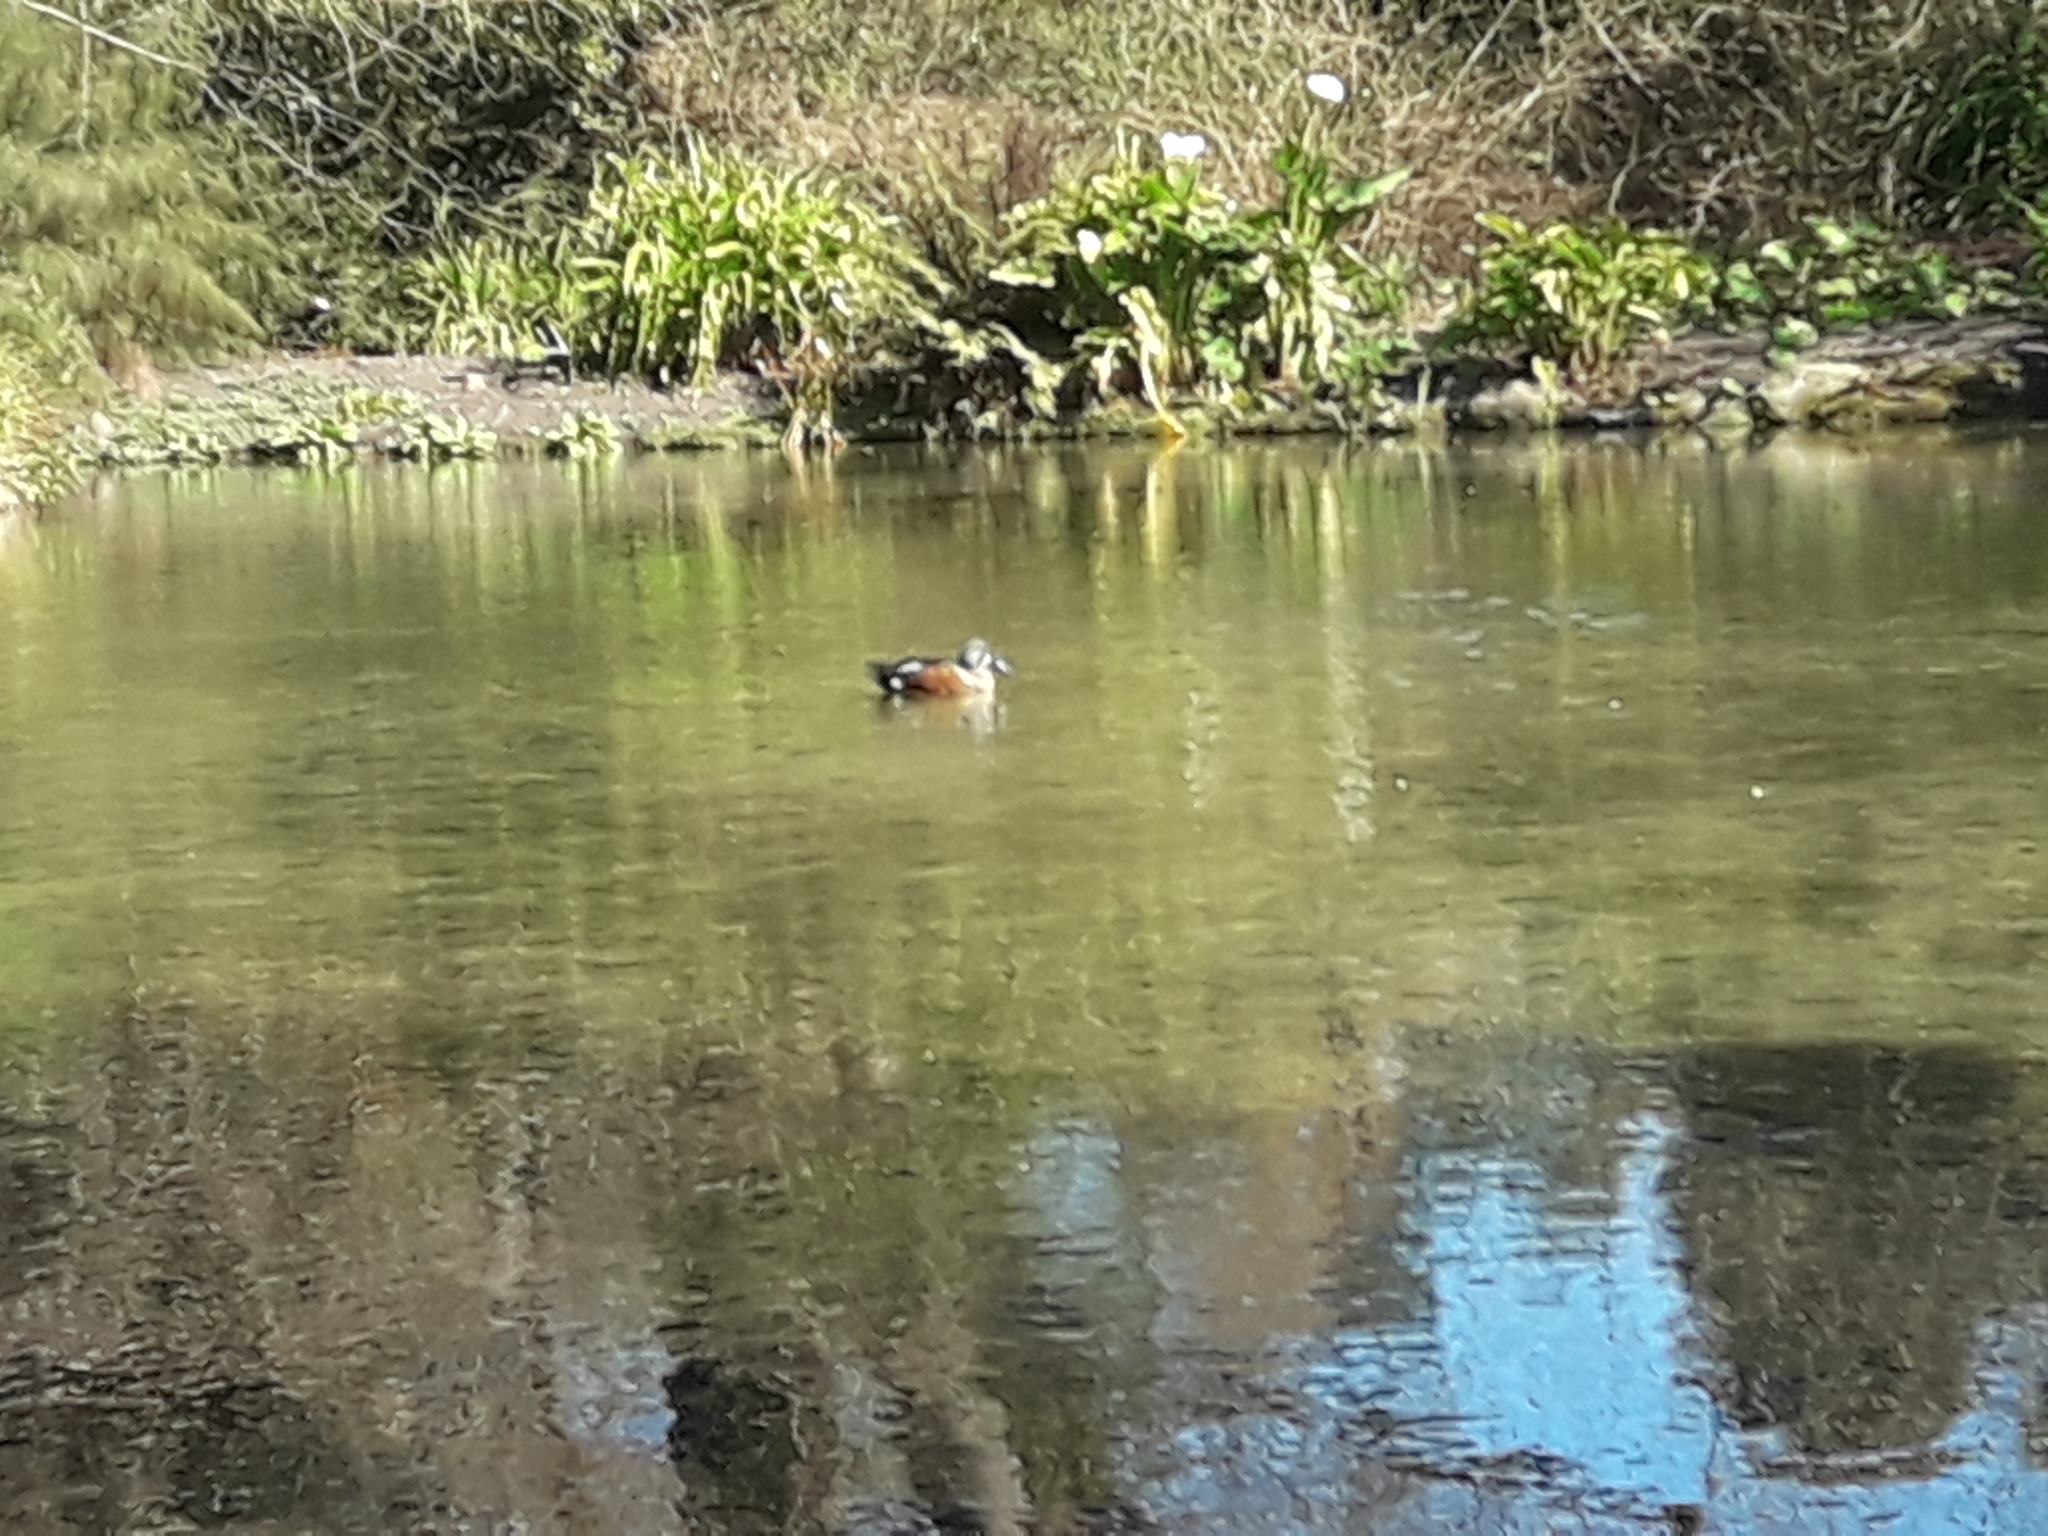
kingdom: Animalia
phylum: Chordata
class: Aves
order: Anseriformes
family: Anatidae
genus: Spatula
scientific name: Spatula rhynchotis
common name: Australian shoveler
